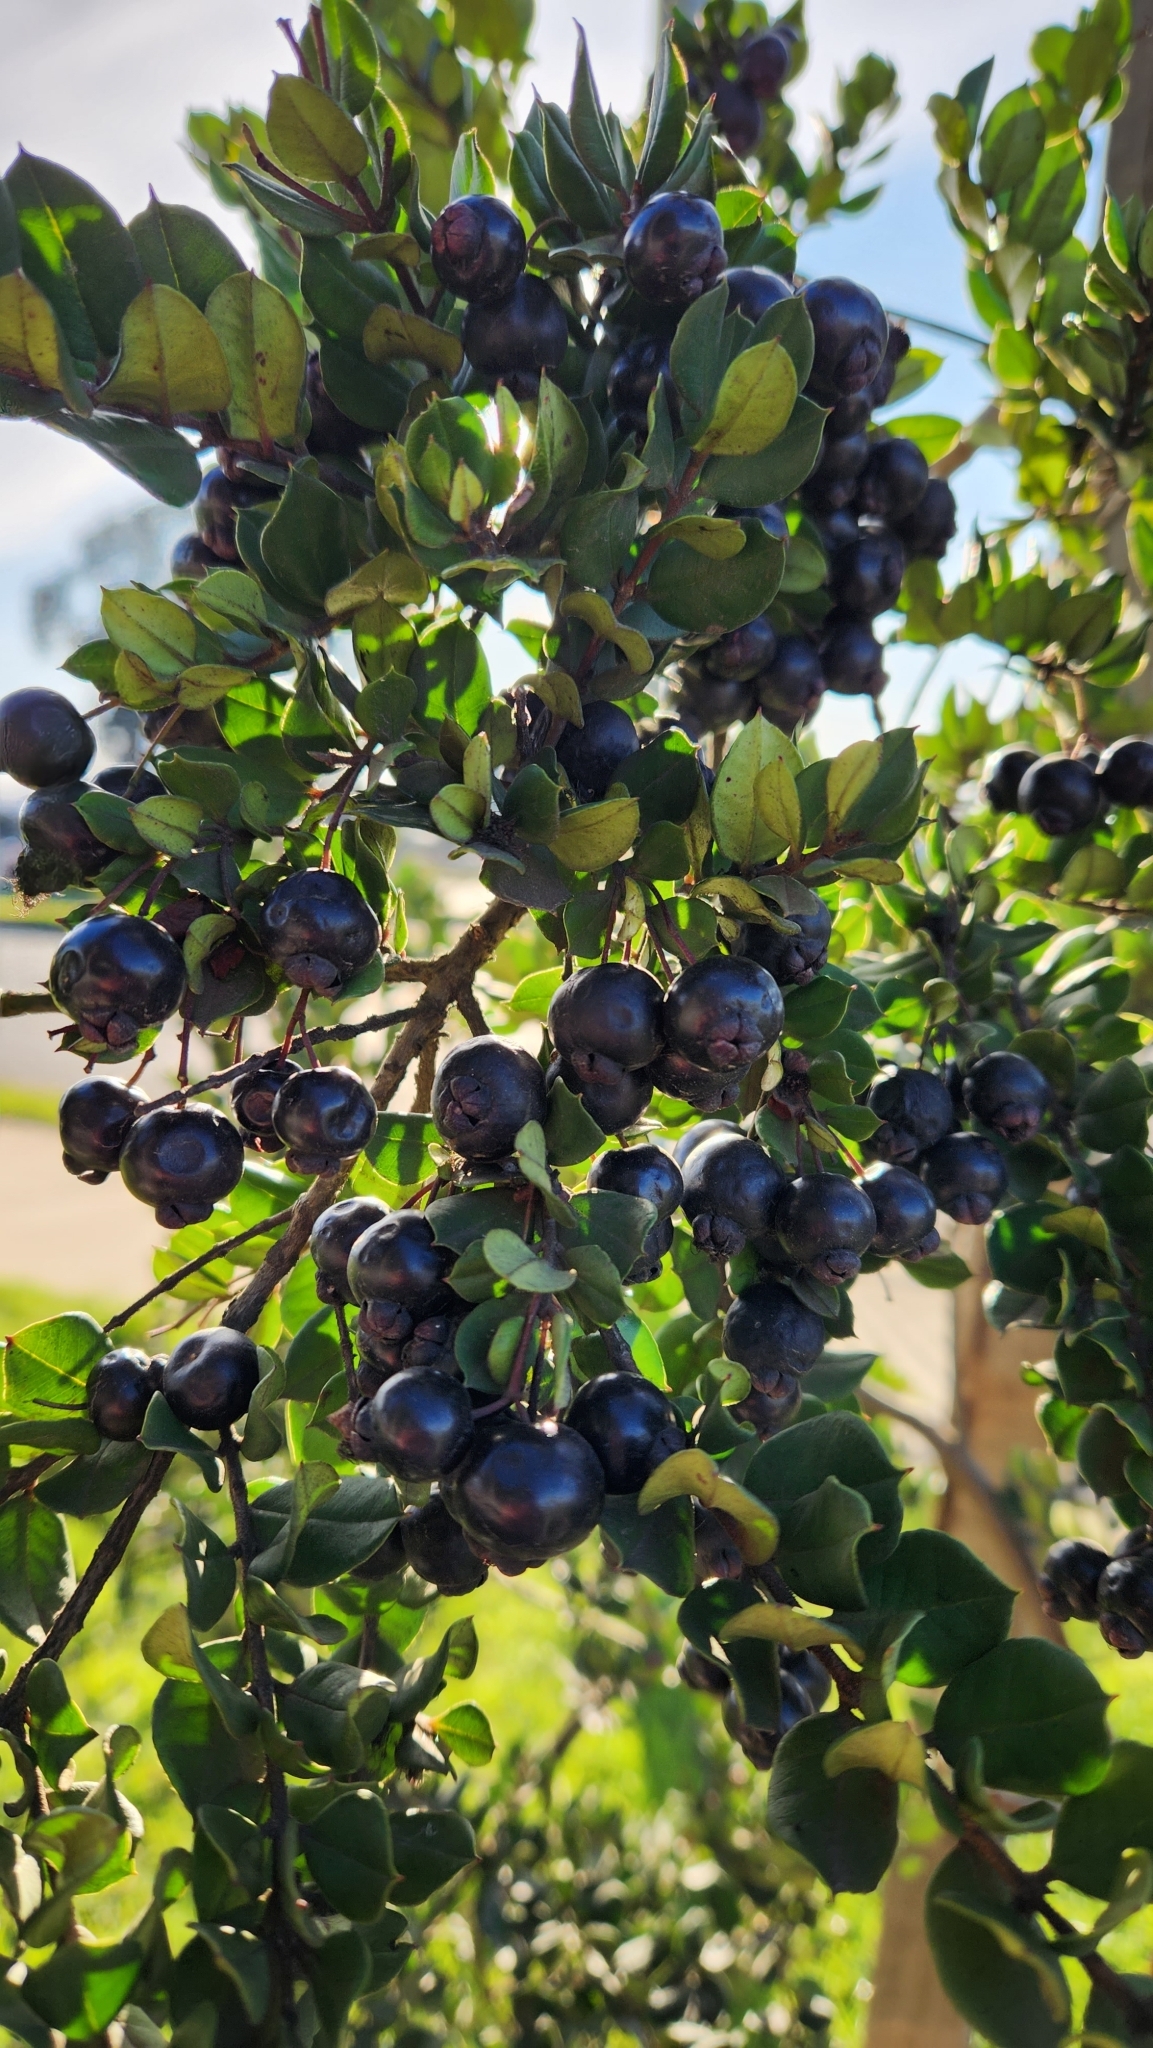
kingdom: Plantae
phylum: Tracheophyta
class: Magnoliopsida
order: Myrtales
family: Myrtaceae
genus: Luma
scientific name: Luma apiculata
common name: Chilean myrtle
